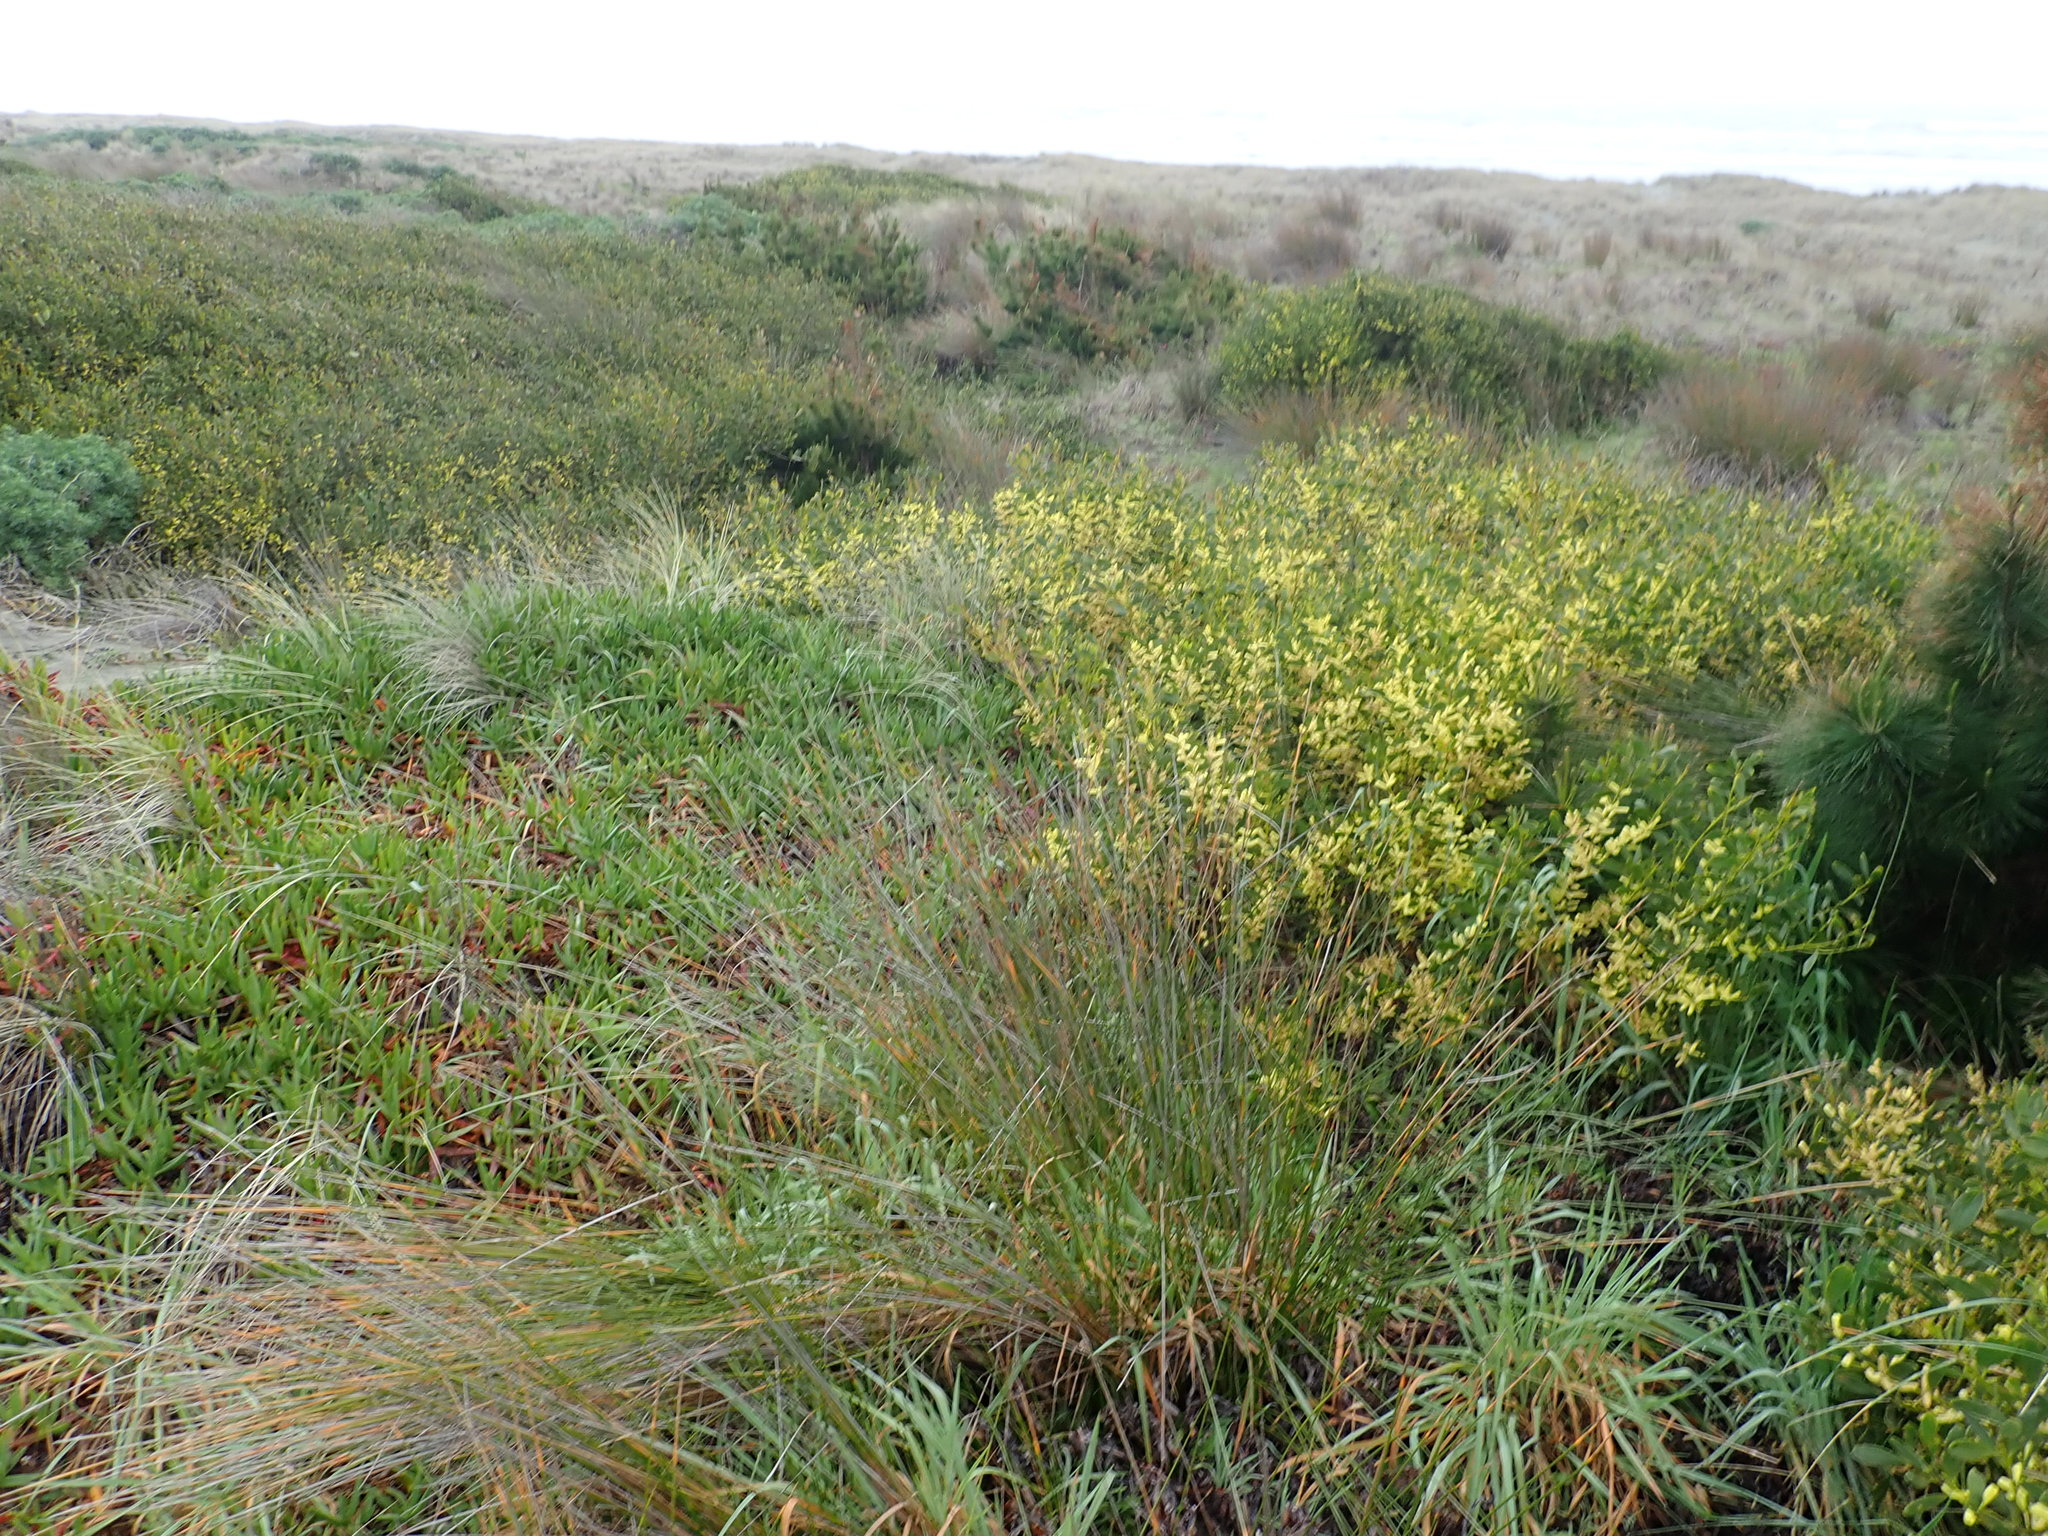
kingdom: Plantae
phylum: Tracheophyta
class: Magnoliopsida
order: Fabales
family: Fabaceae
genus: Acacia
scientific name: Acacia longifolia
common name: Sydney golden wattle
